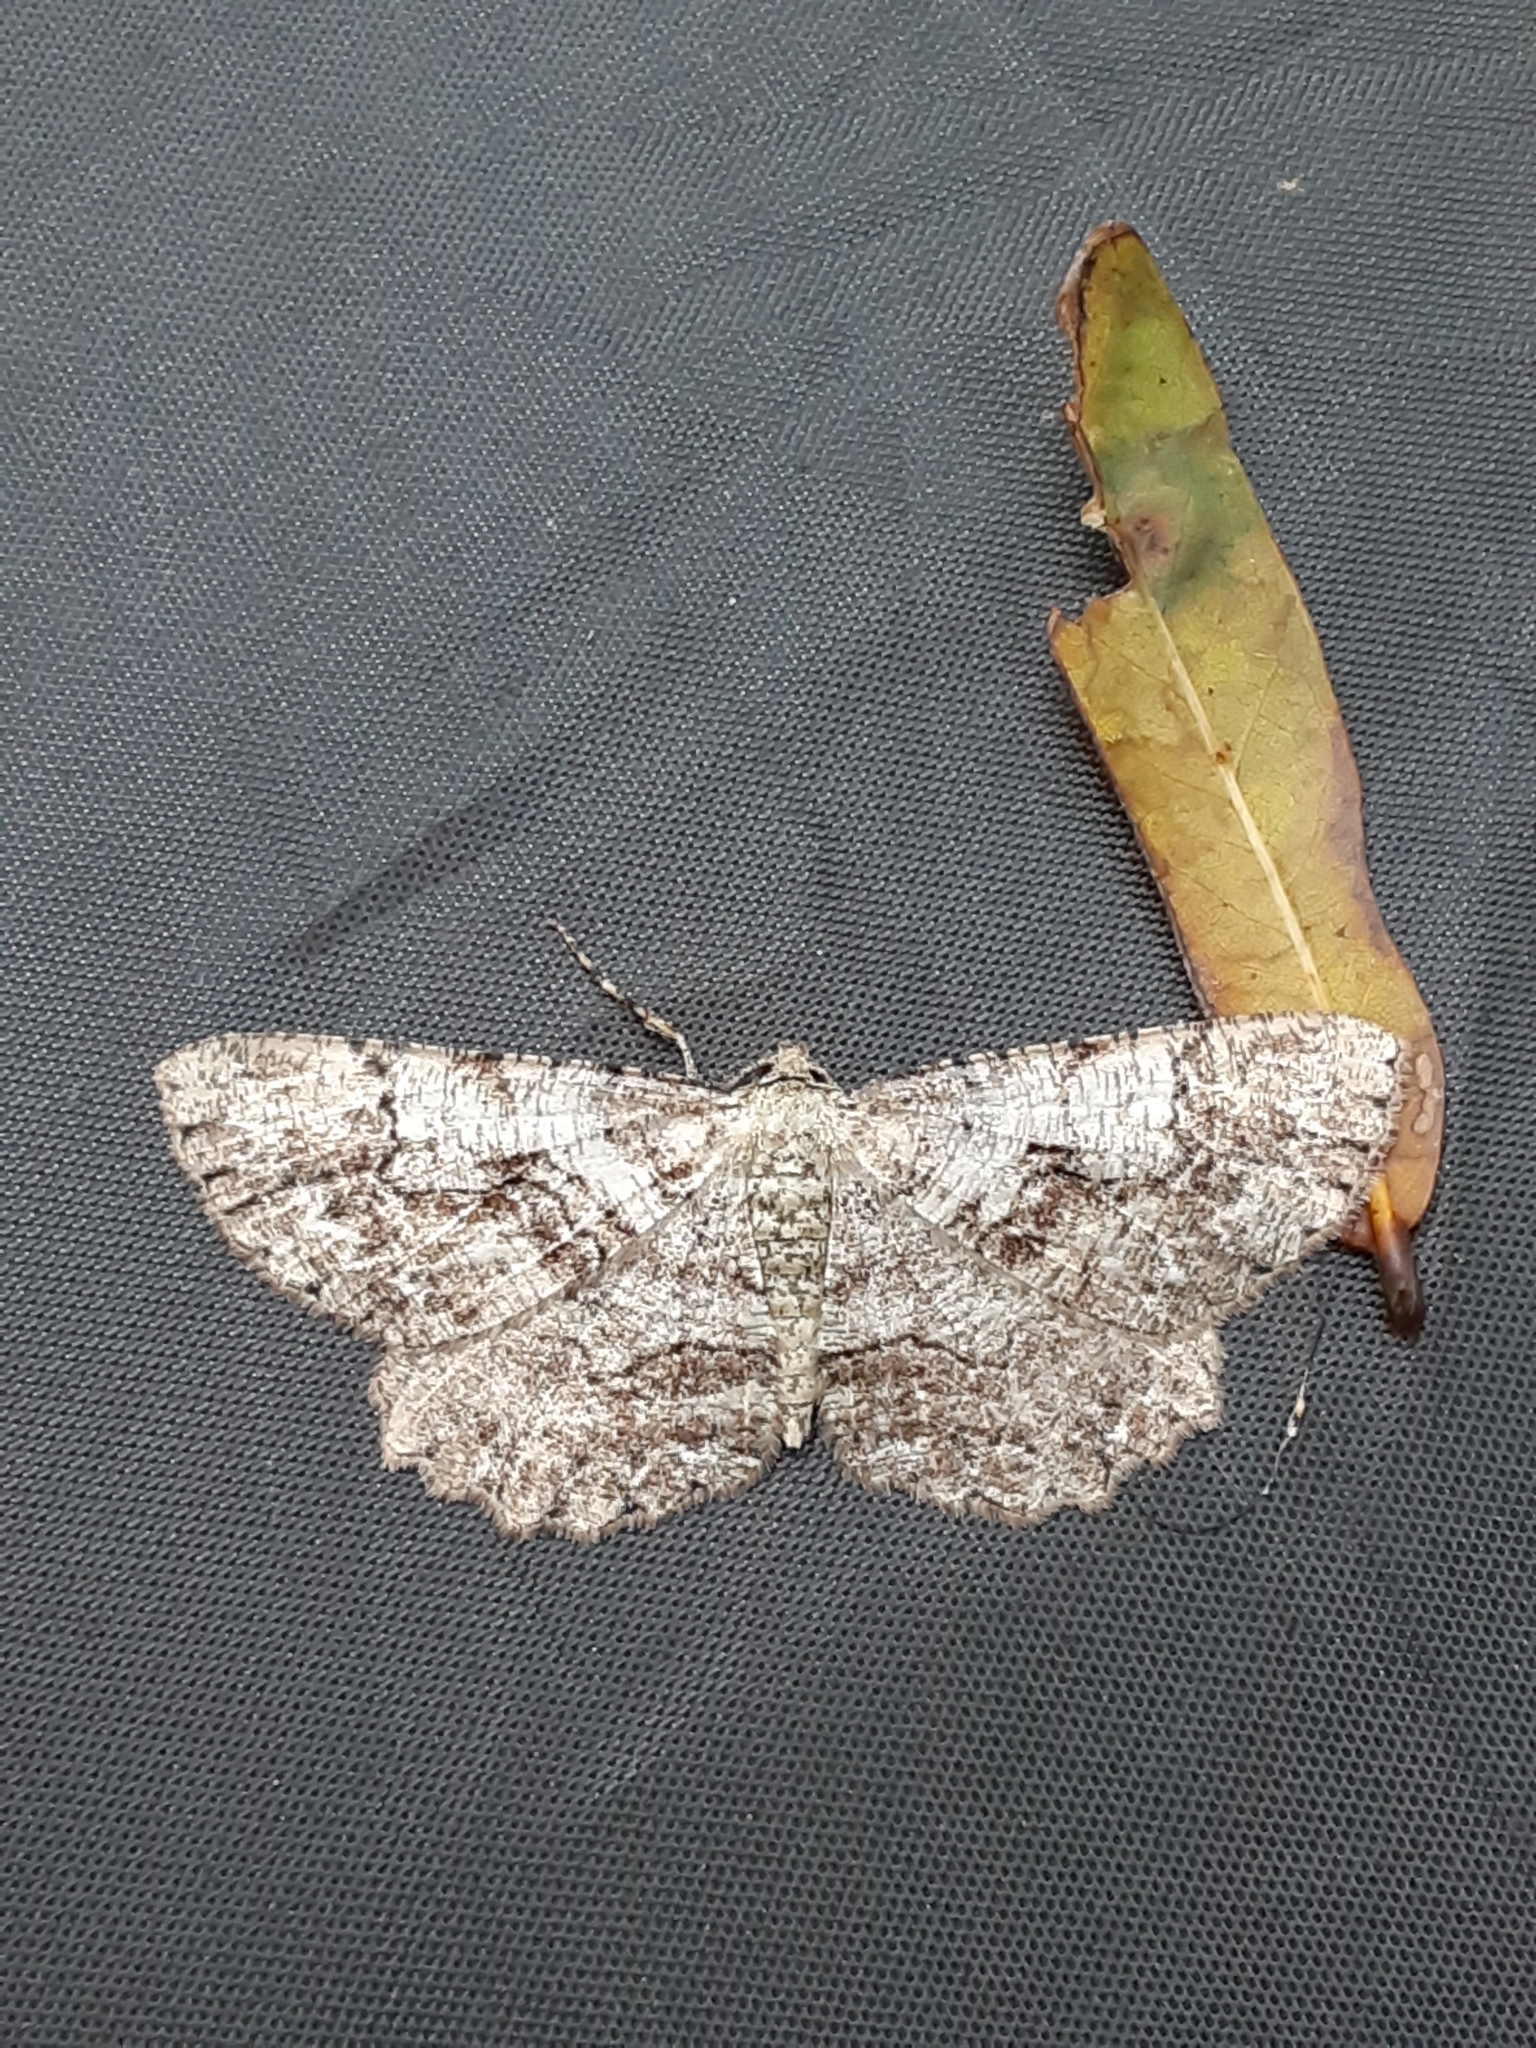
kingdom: Animalia
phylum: Arthropoda
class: Insecta
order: Lepidoptera
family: Geometridae
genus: Cymatophora
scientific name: Cymatophora approximaria
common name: Giant gray moth
